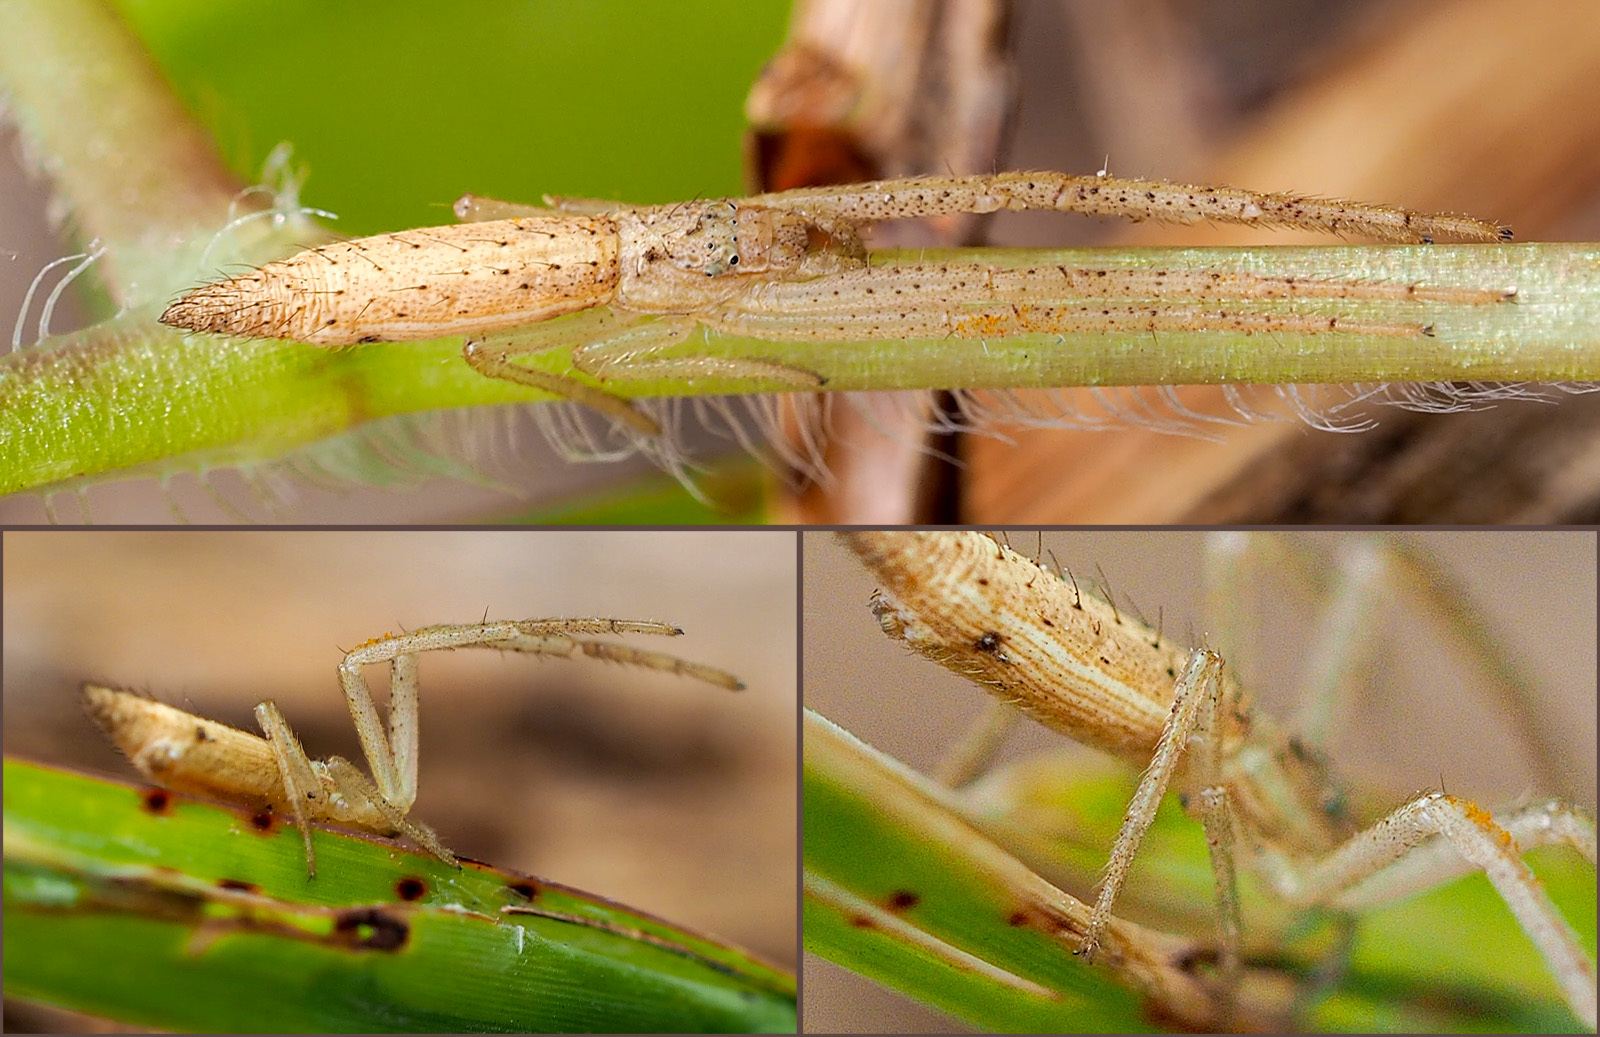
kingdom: Animalia
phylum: Arthropoda
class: Arachnida
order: Araneae
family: Thomisidae
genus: Monaeses
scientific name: Monaeses paradoxus
